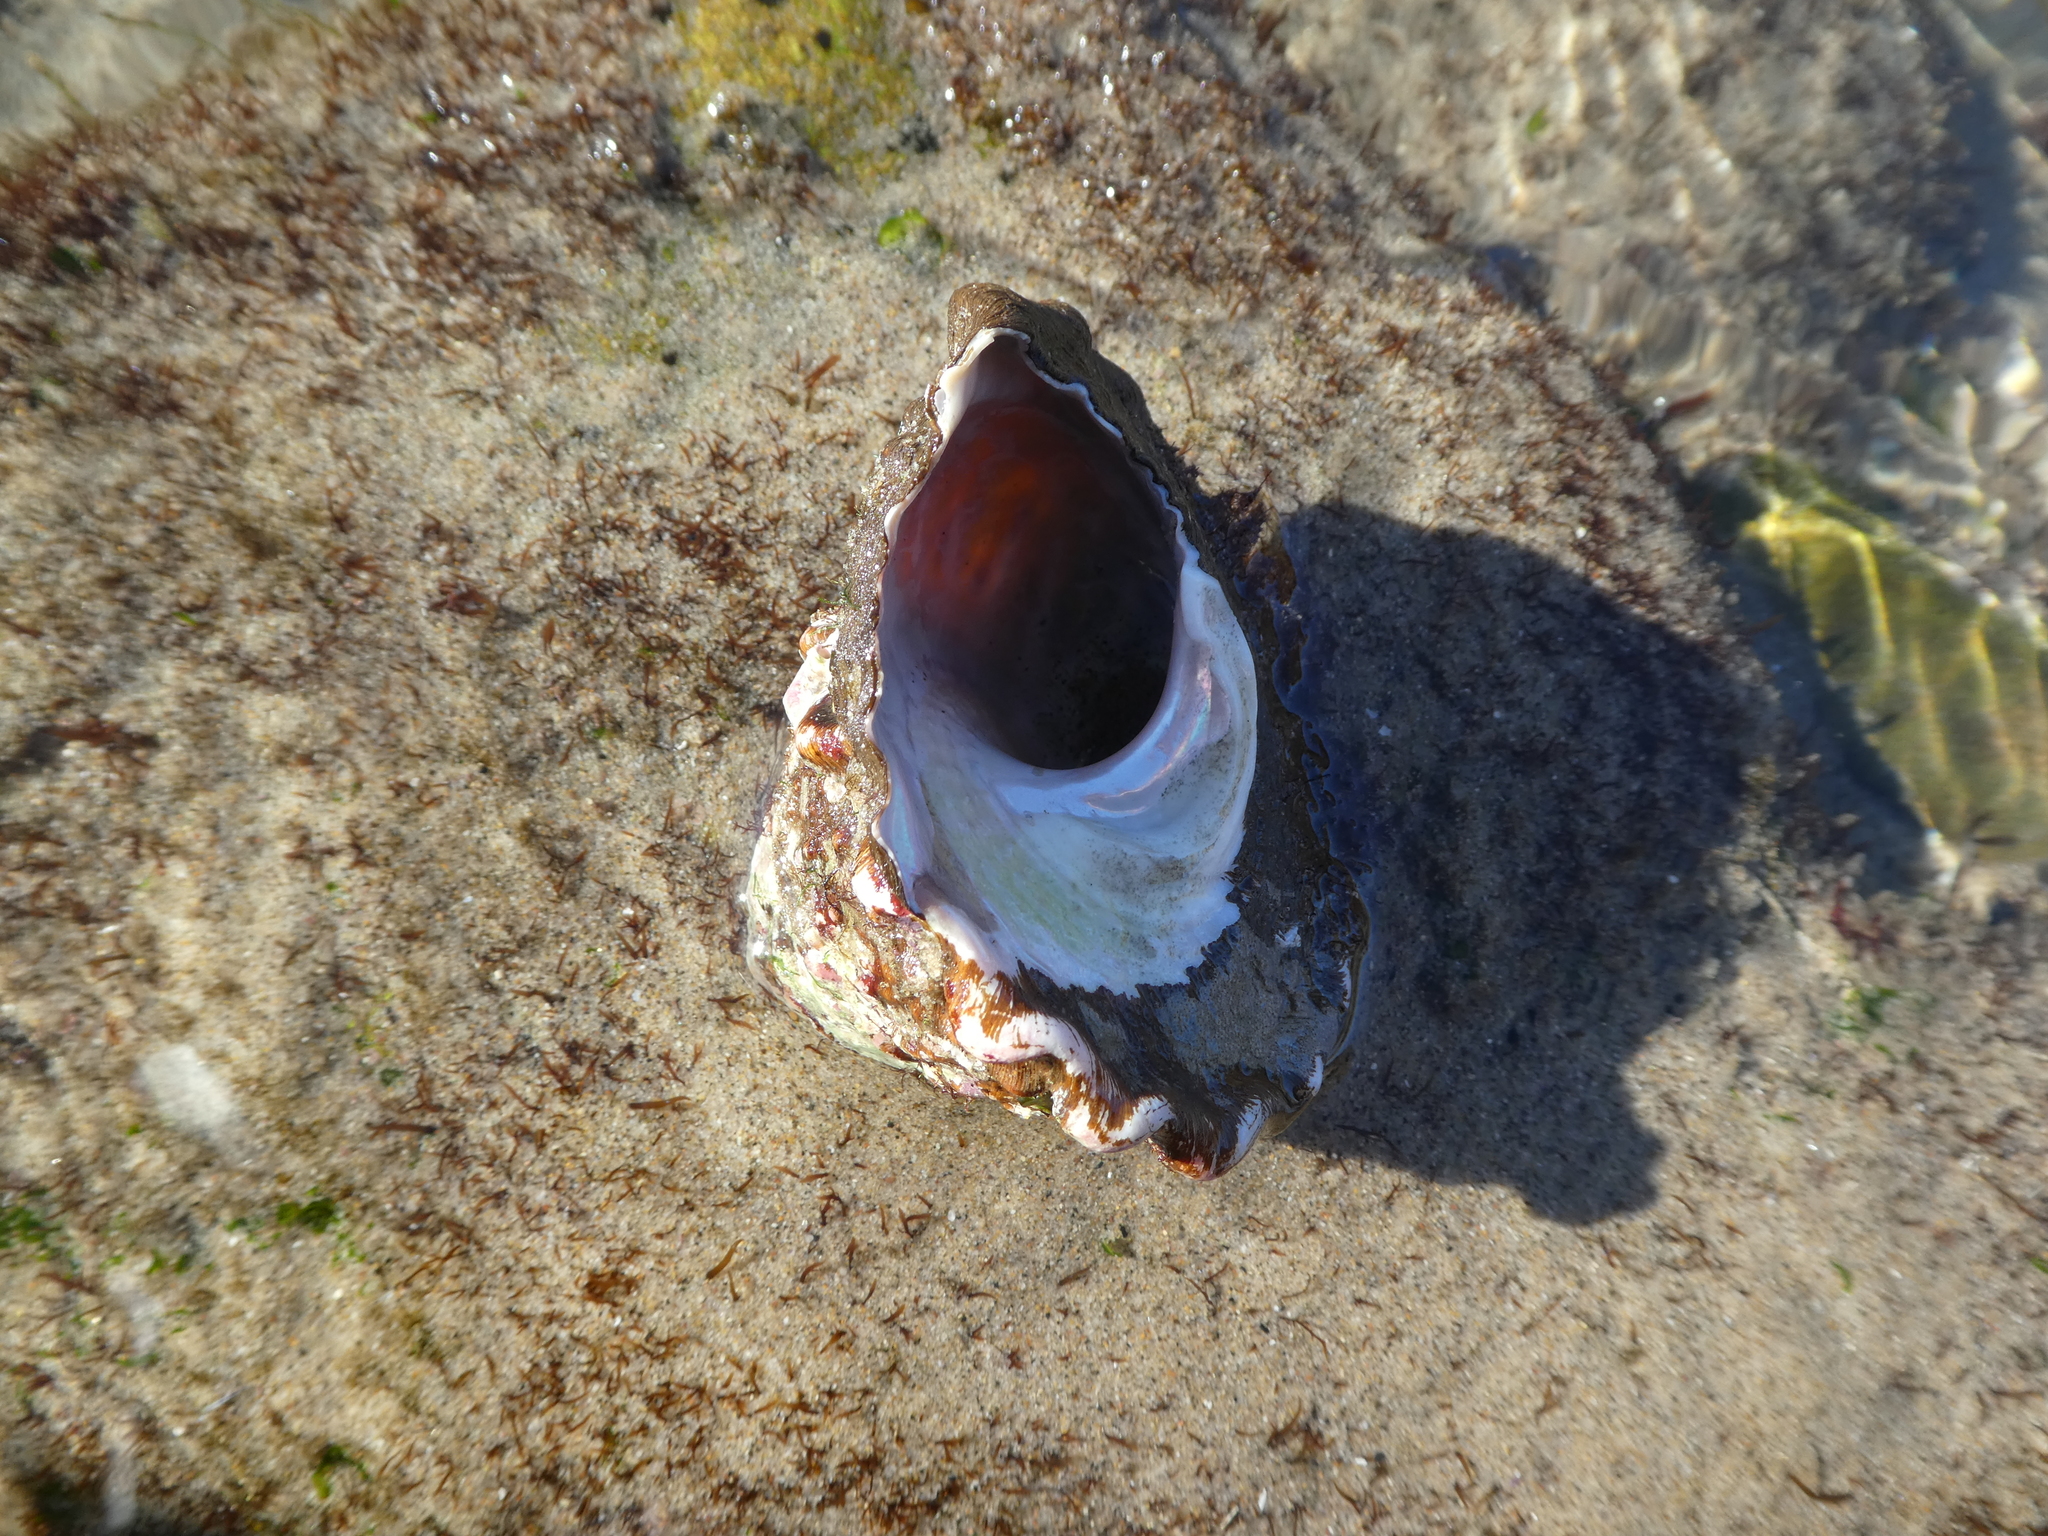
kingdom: Animalia
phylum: Mollusca
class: Gastropoda
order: Trochida
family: Turbinidae
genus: Megastraea
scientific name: Megastraea undosa
